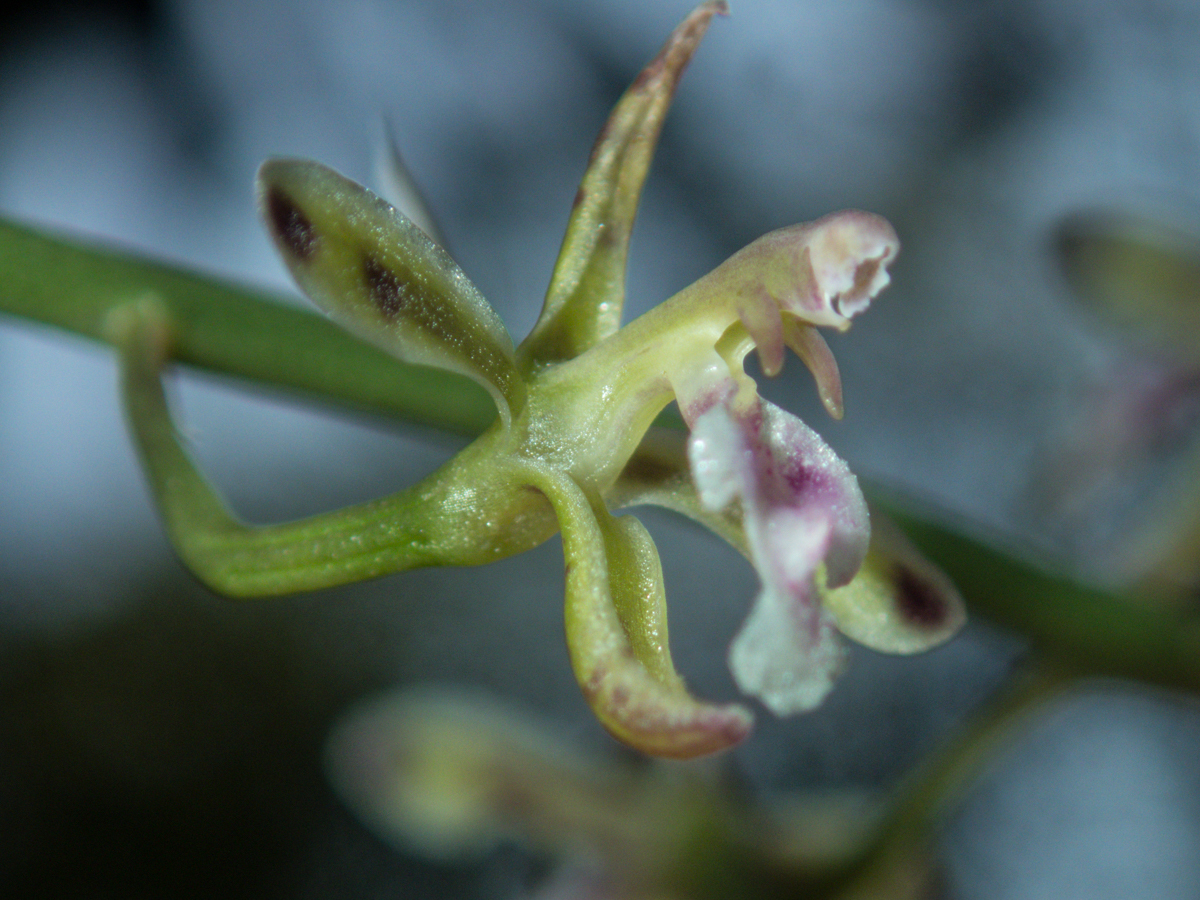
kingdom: Plantae
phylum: Tracheophyta
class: Liliopsida
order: Asparagales
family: Orchidaceae
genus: Acriopsis
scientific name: Acriopsis liliifolia
